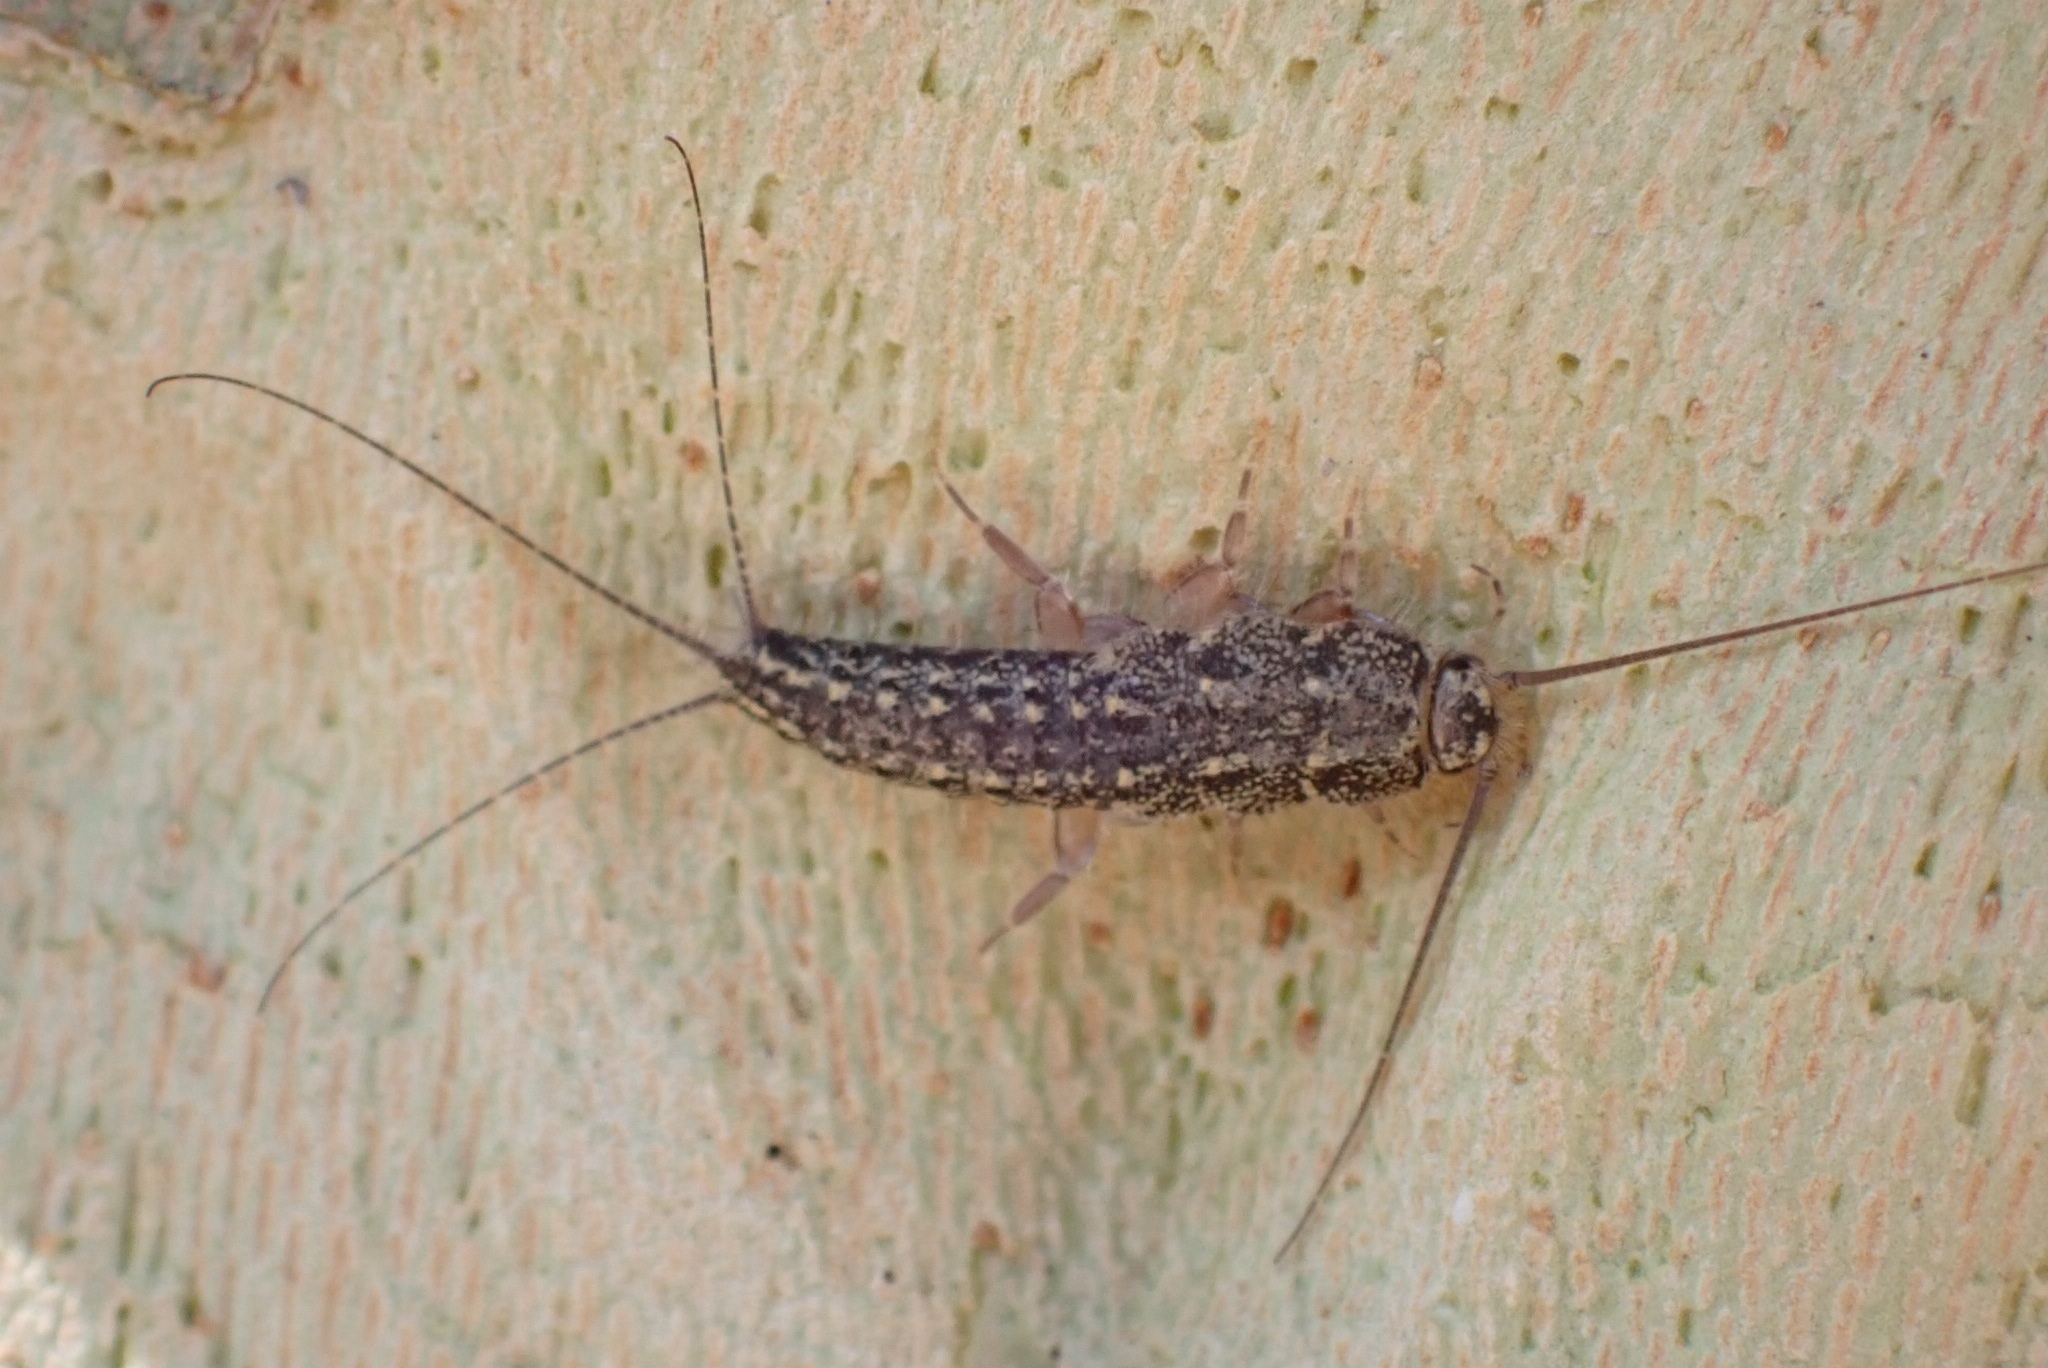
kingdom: Animalia
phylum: Arthropoda
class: Insecta
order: Zygentoma
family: Lepismatidae
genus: Ctenolepisma
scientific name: Ctenolepisma lineata
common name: Four-lined silverfish
